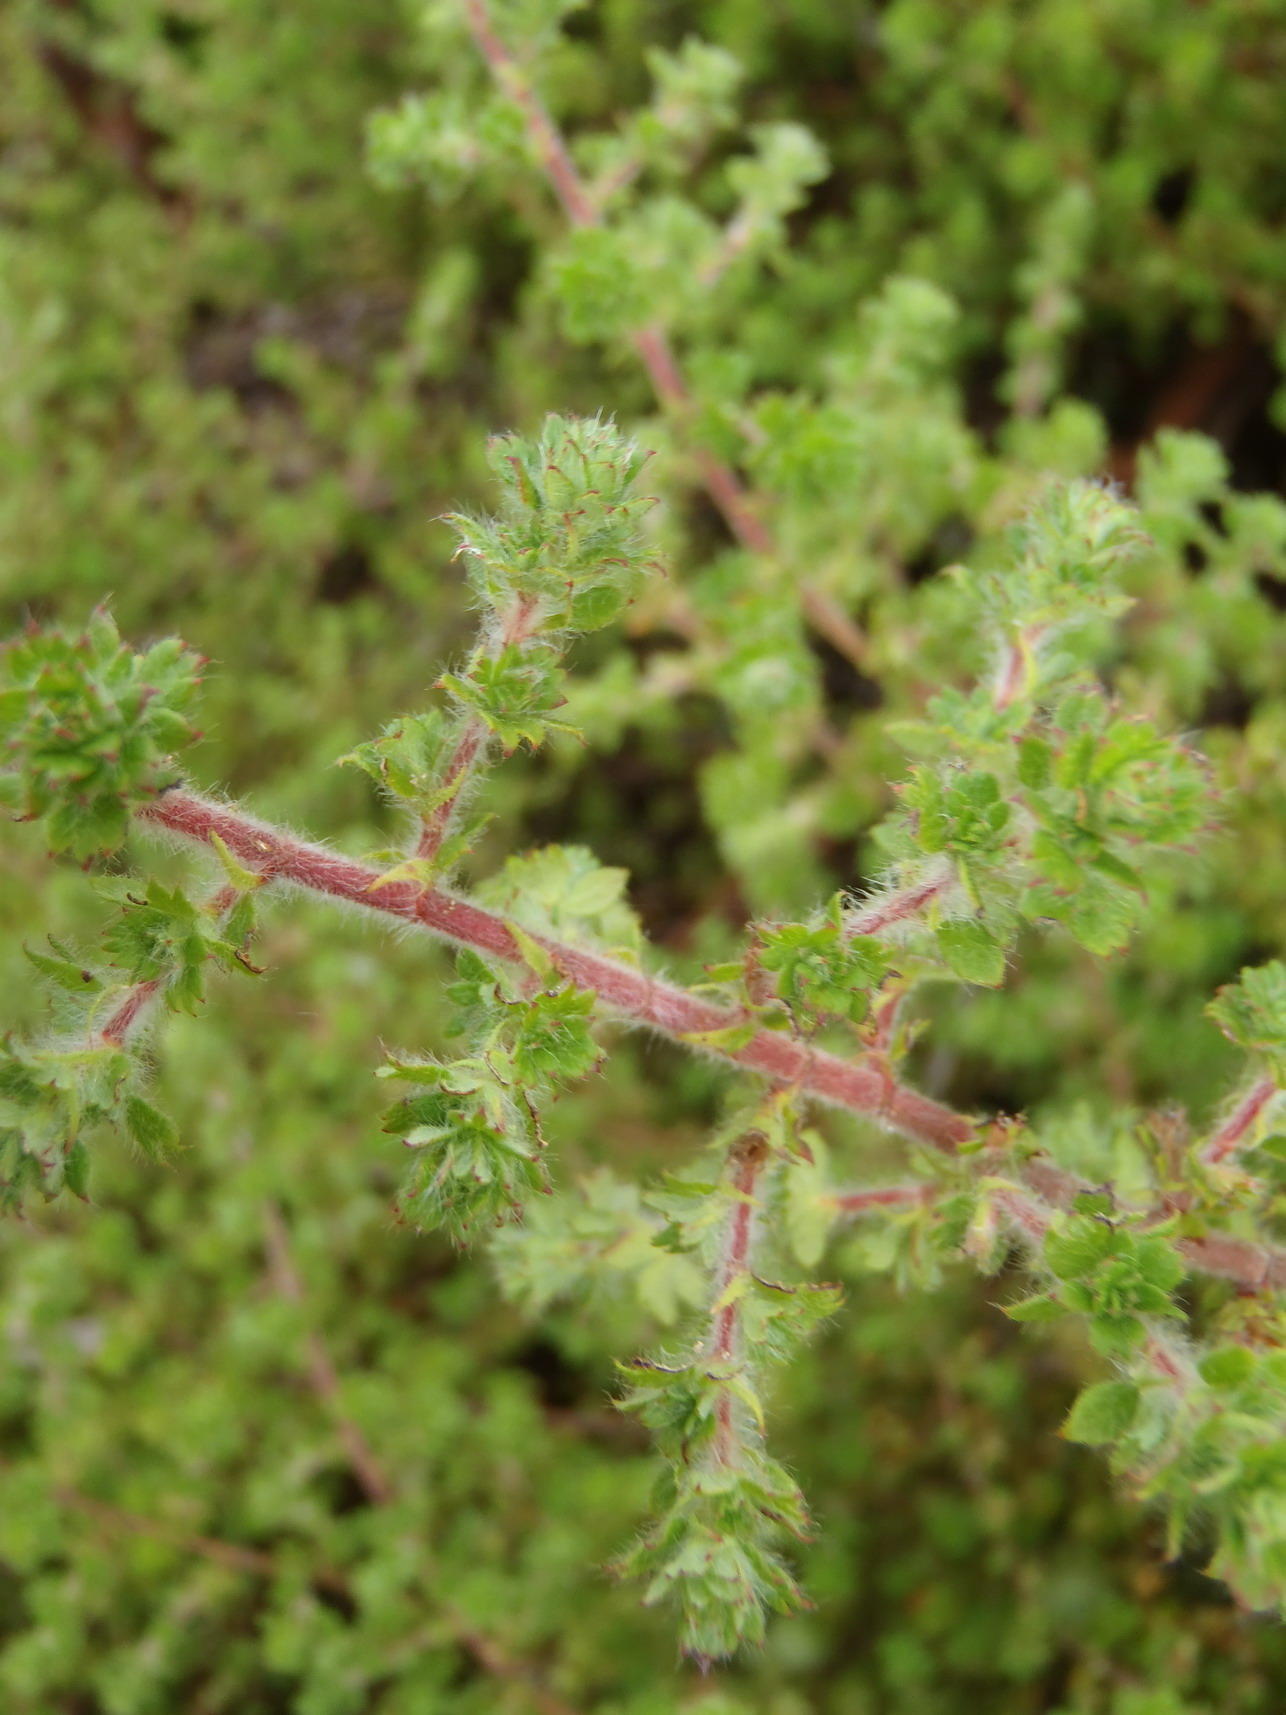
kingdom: Plantae
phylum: Tracheophyta
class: Magnoliopsida
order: Rosales
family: Rosaceae
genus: Cliffortia
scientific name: Cliffortia filicaulis
